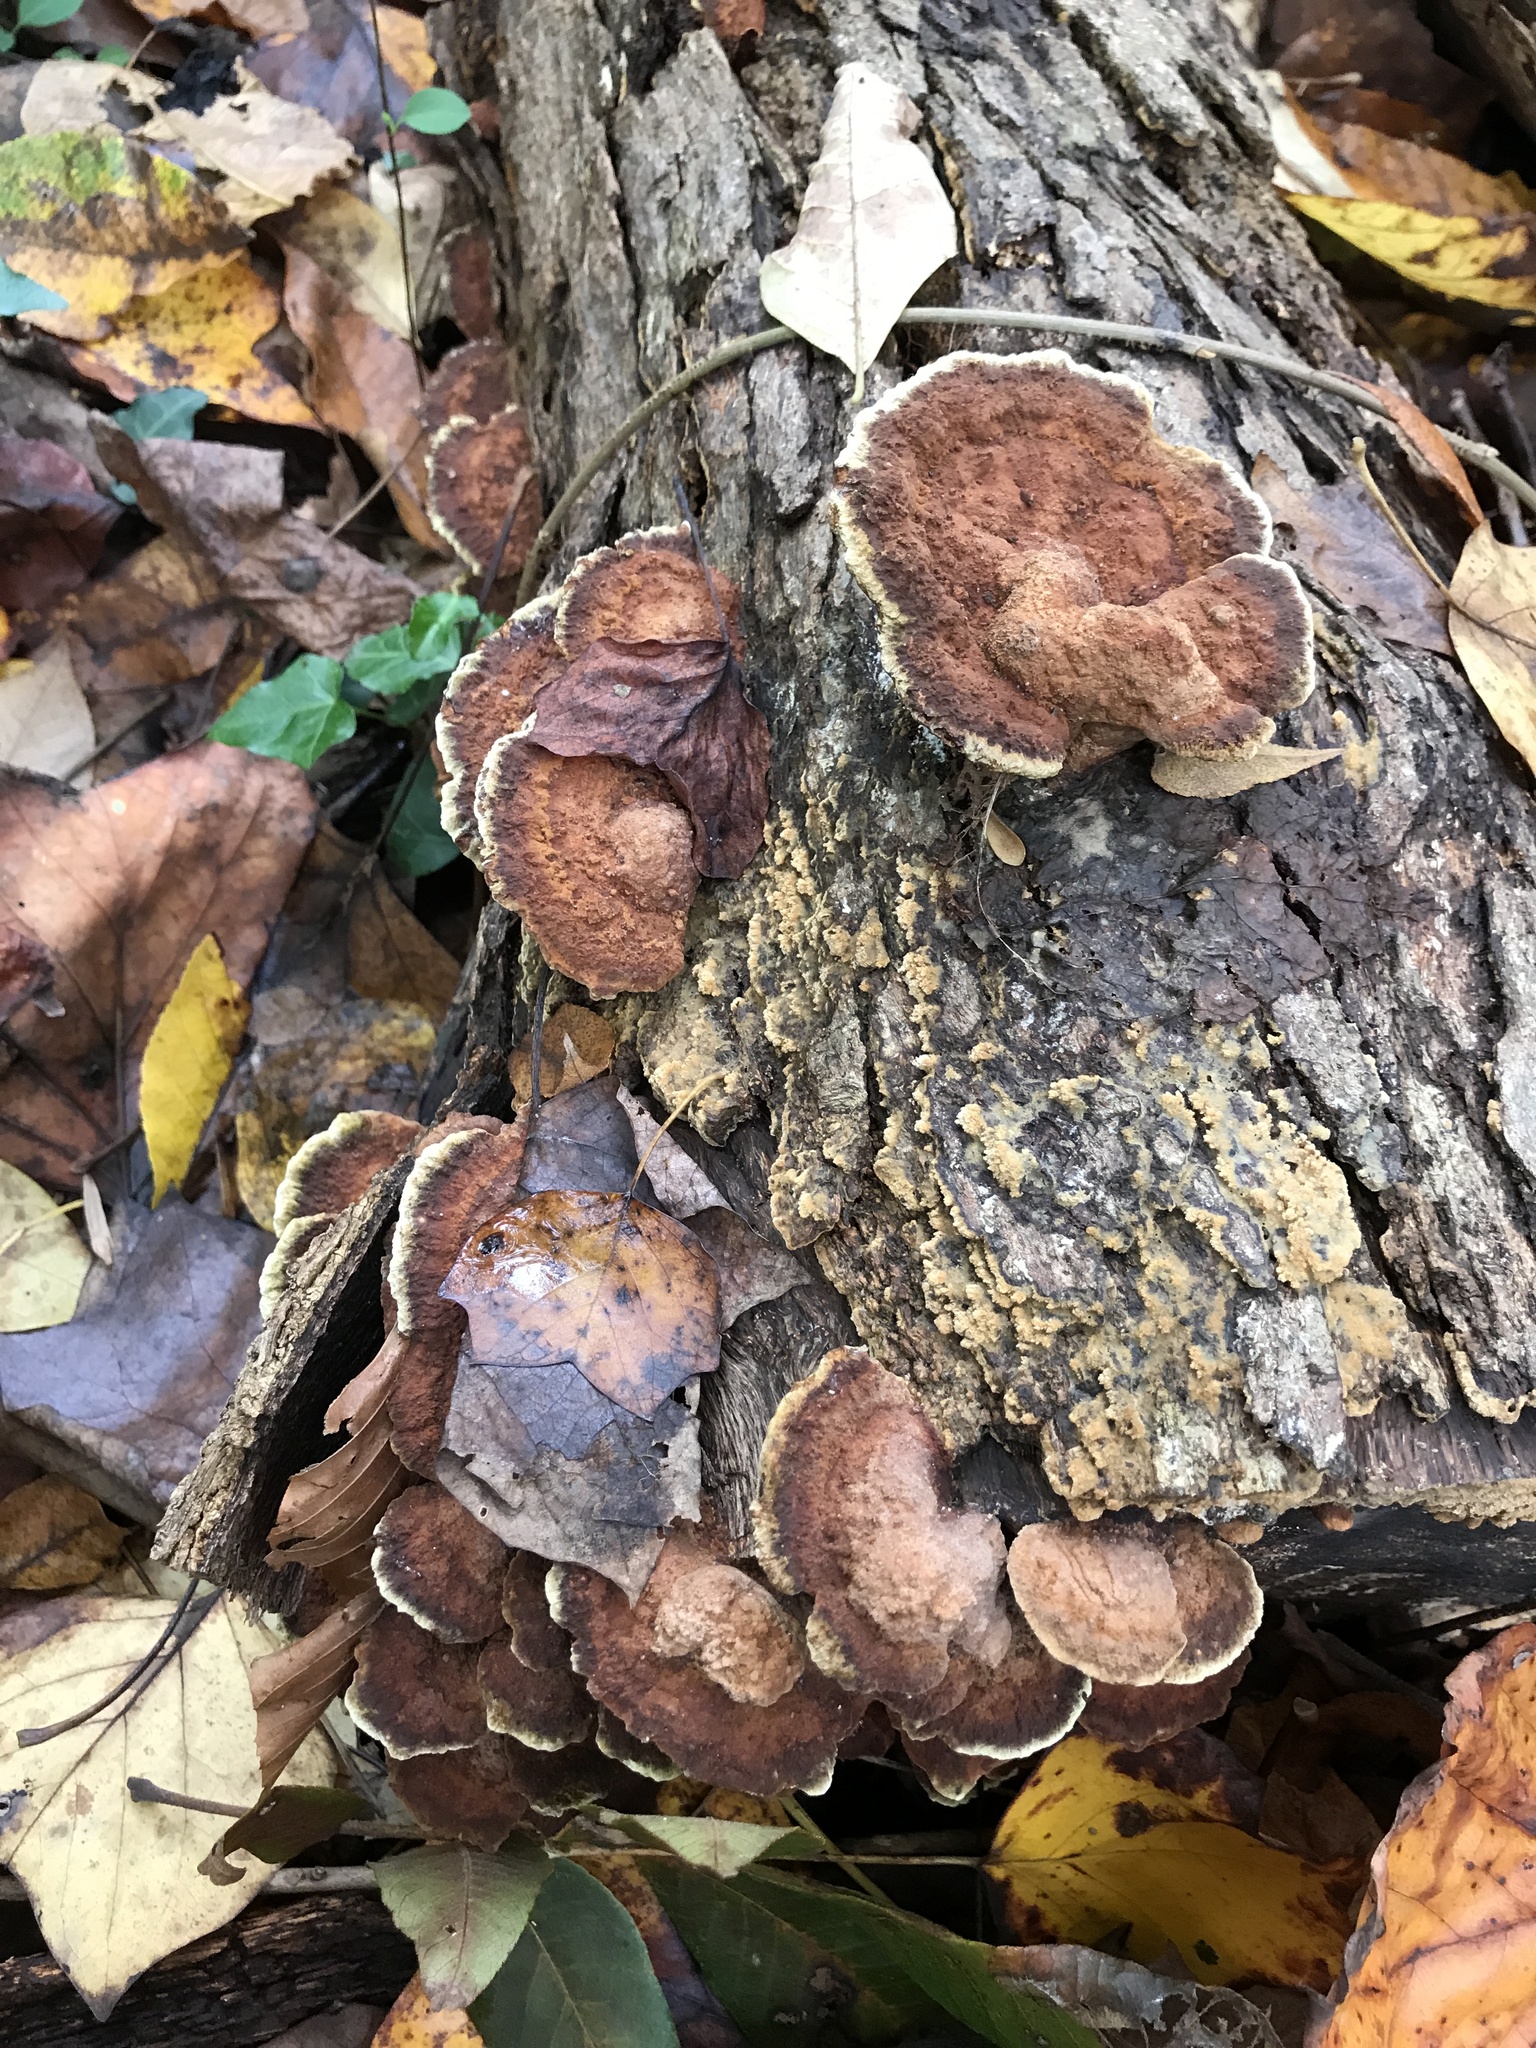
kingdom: Fungi
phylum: Basidiomycota
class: Agaricomycetes
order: Hymenochaetales
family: Hymenochaetaceae
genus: Phellinus
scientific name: Phellinus gilvus
